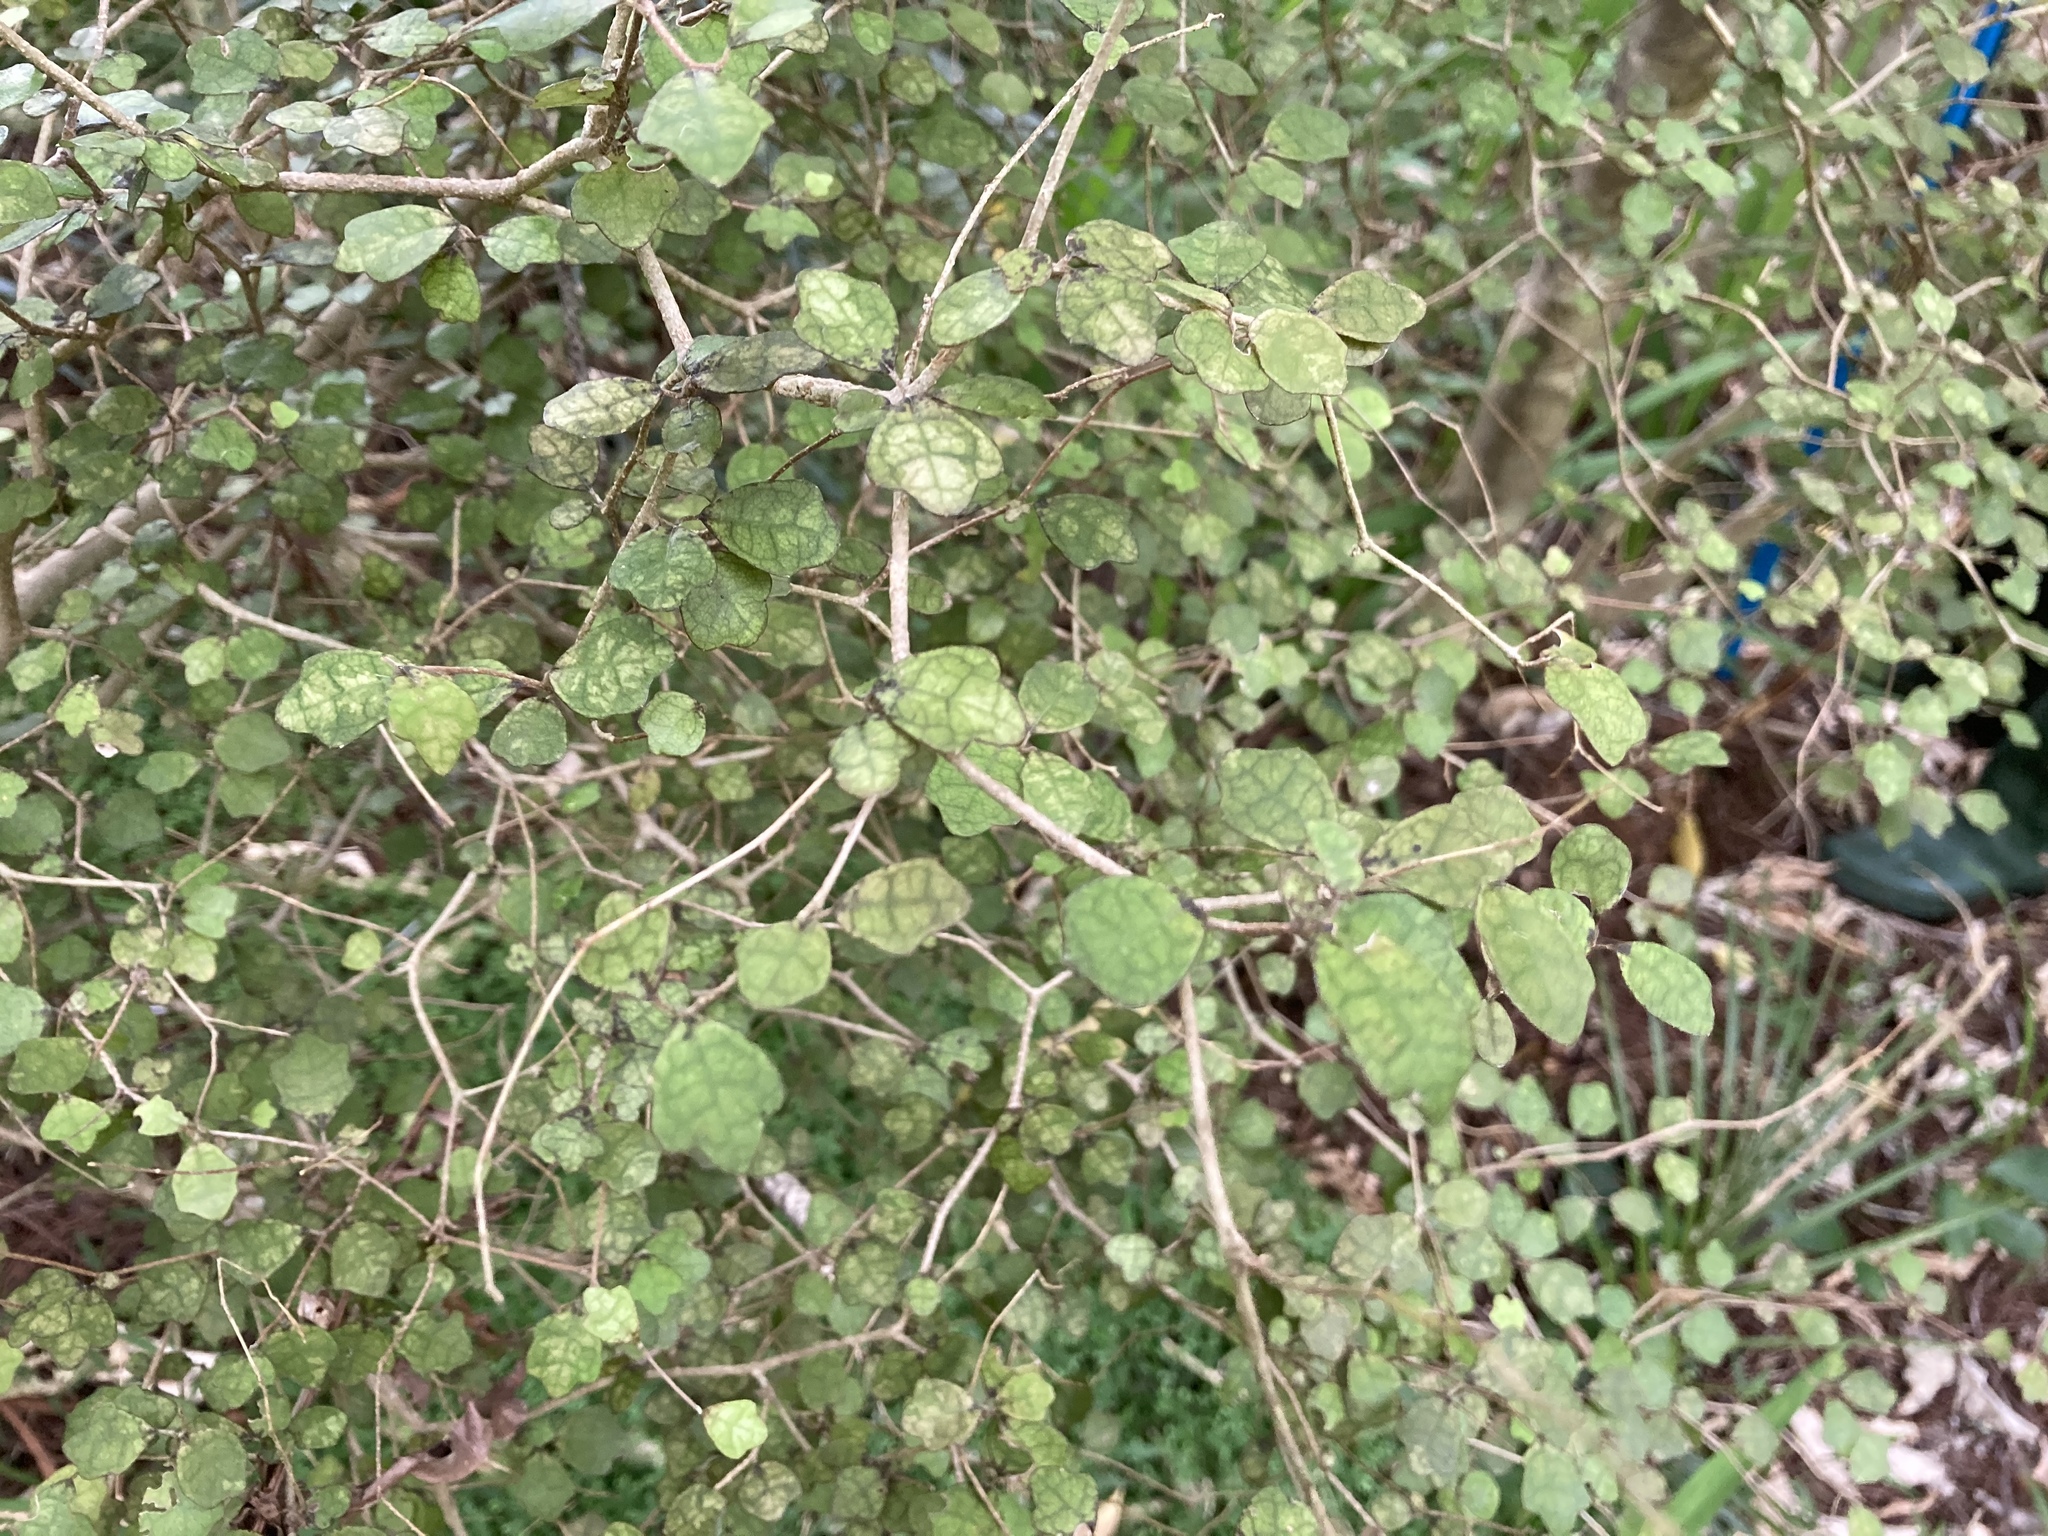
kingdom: Plantae
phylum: Tracheophyta
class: Magnoliopsida
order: Apiales
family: Pennantiaceae
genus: Pennantia
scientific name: Pennantia corymbosa
